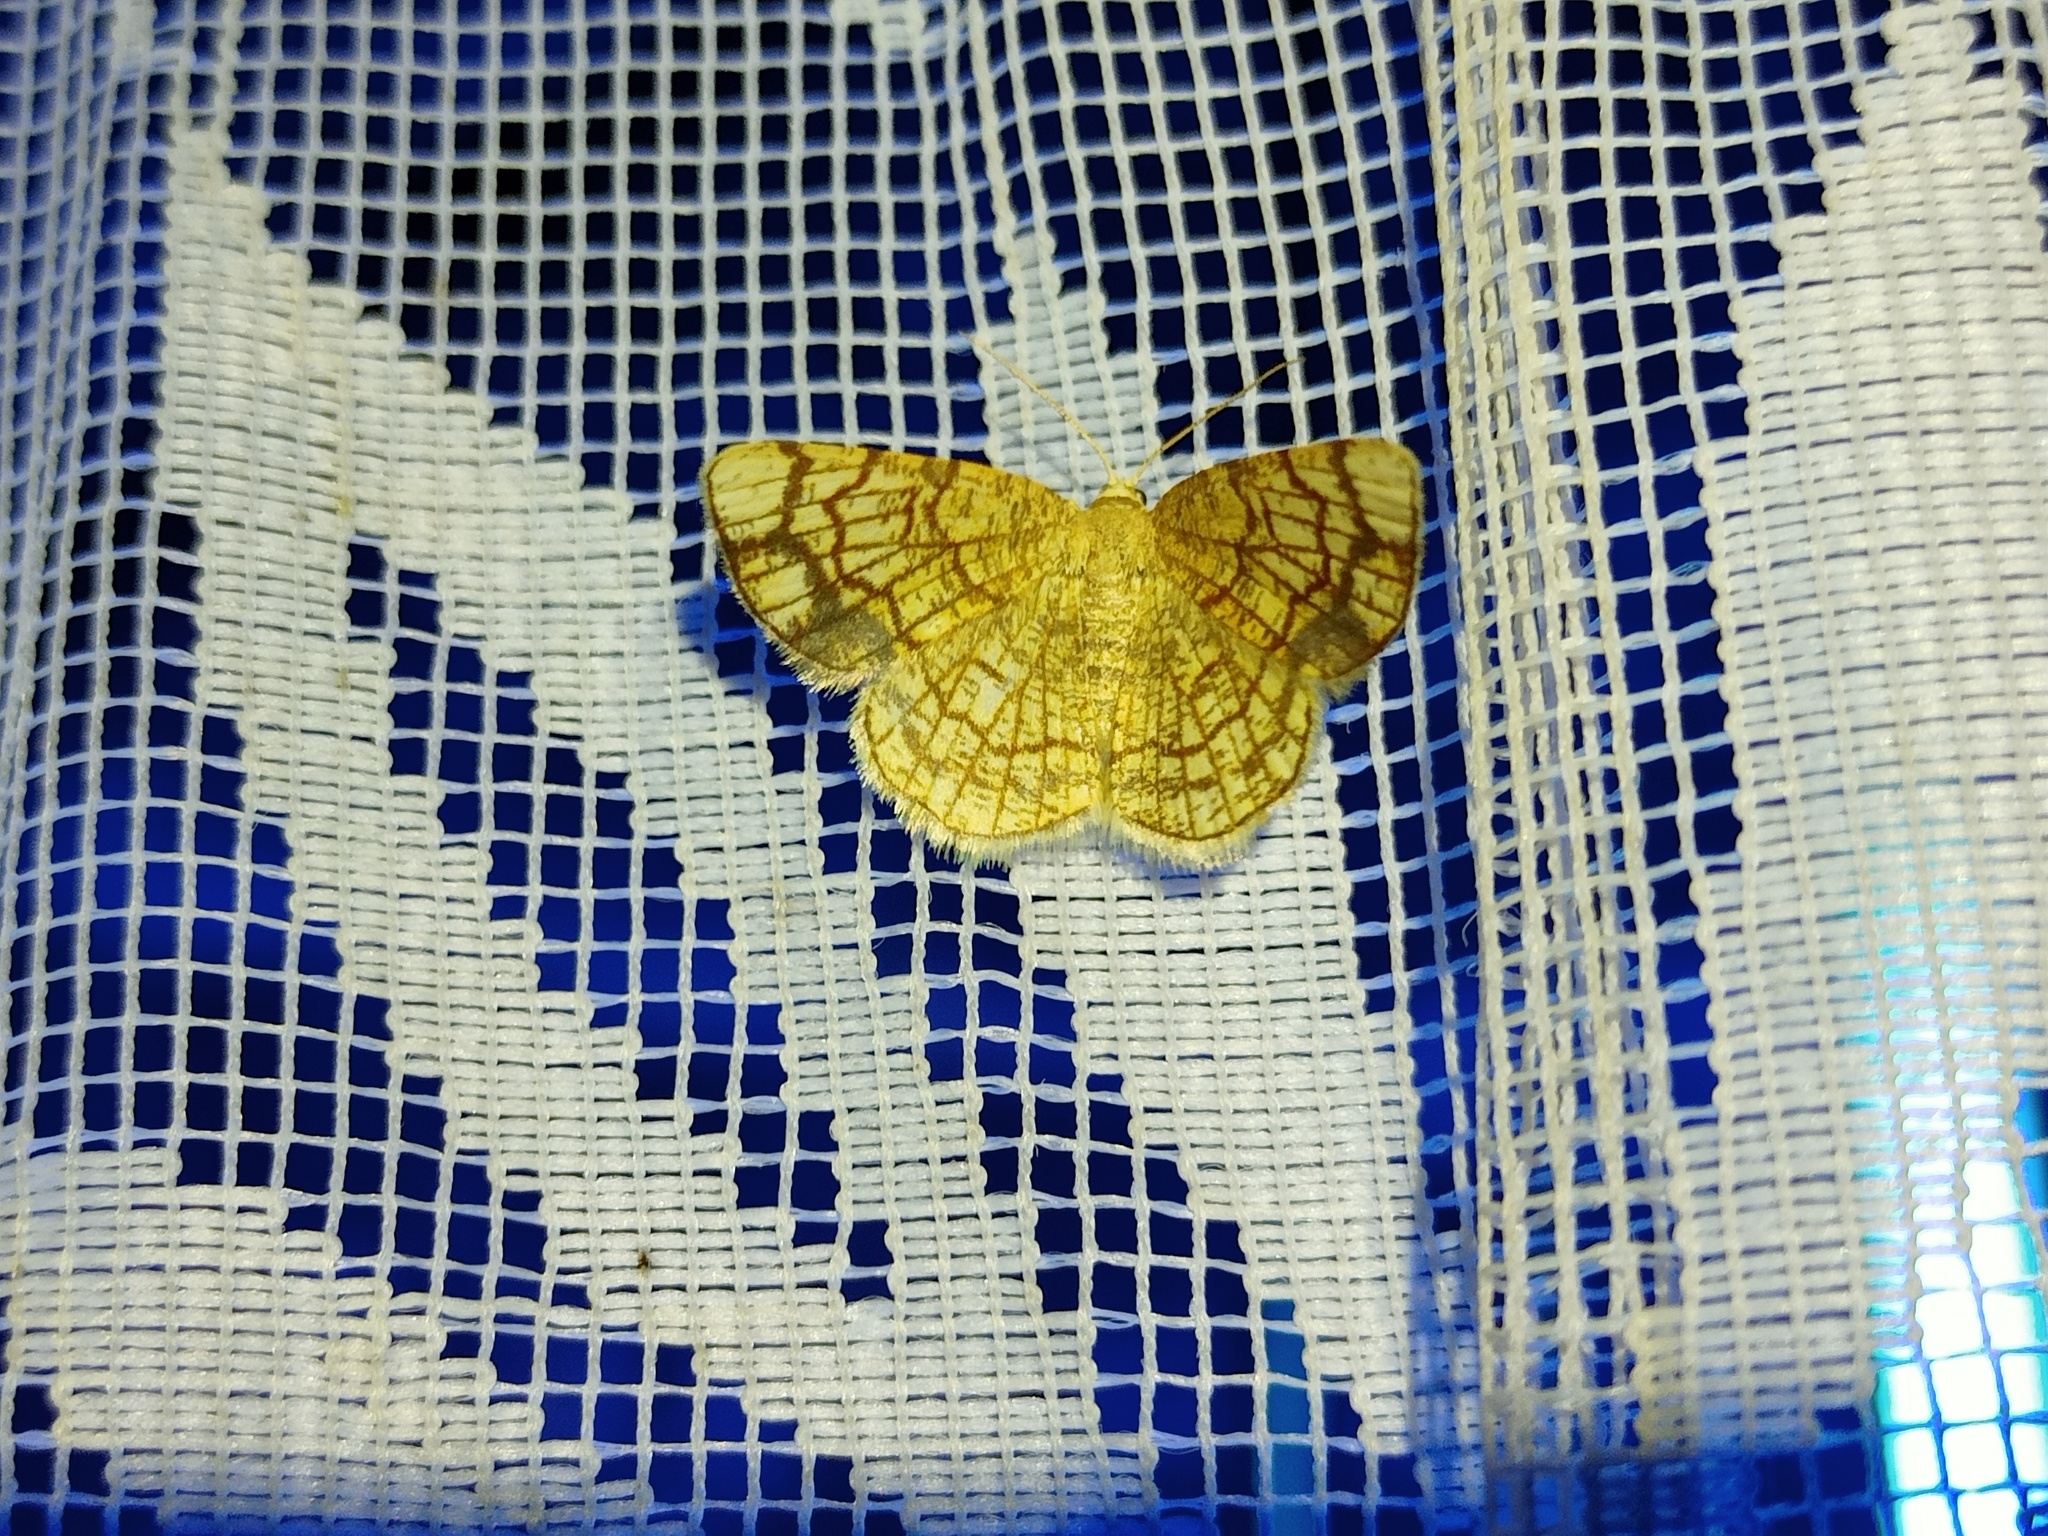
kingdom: Animalia
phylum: Arthropoda
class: Insecta
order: Lepidoptera
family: Geometridae
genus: Stegania
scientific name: Stegania dilectaria
